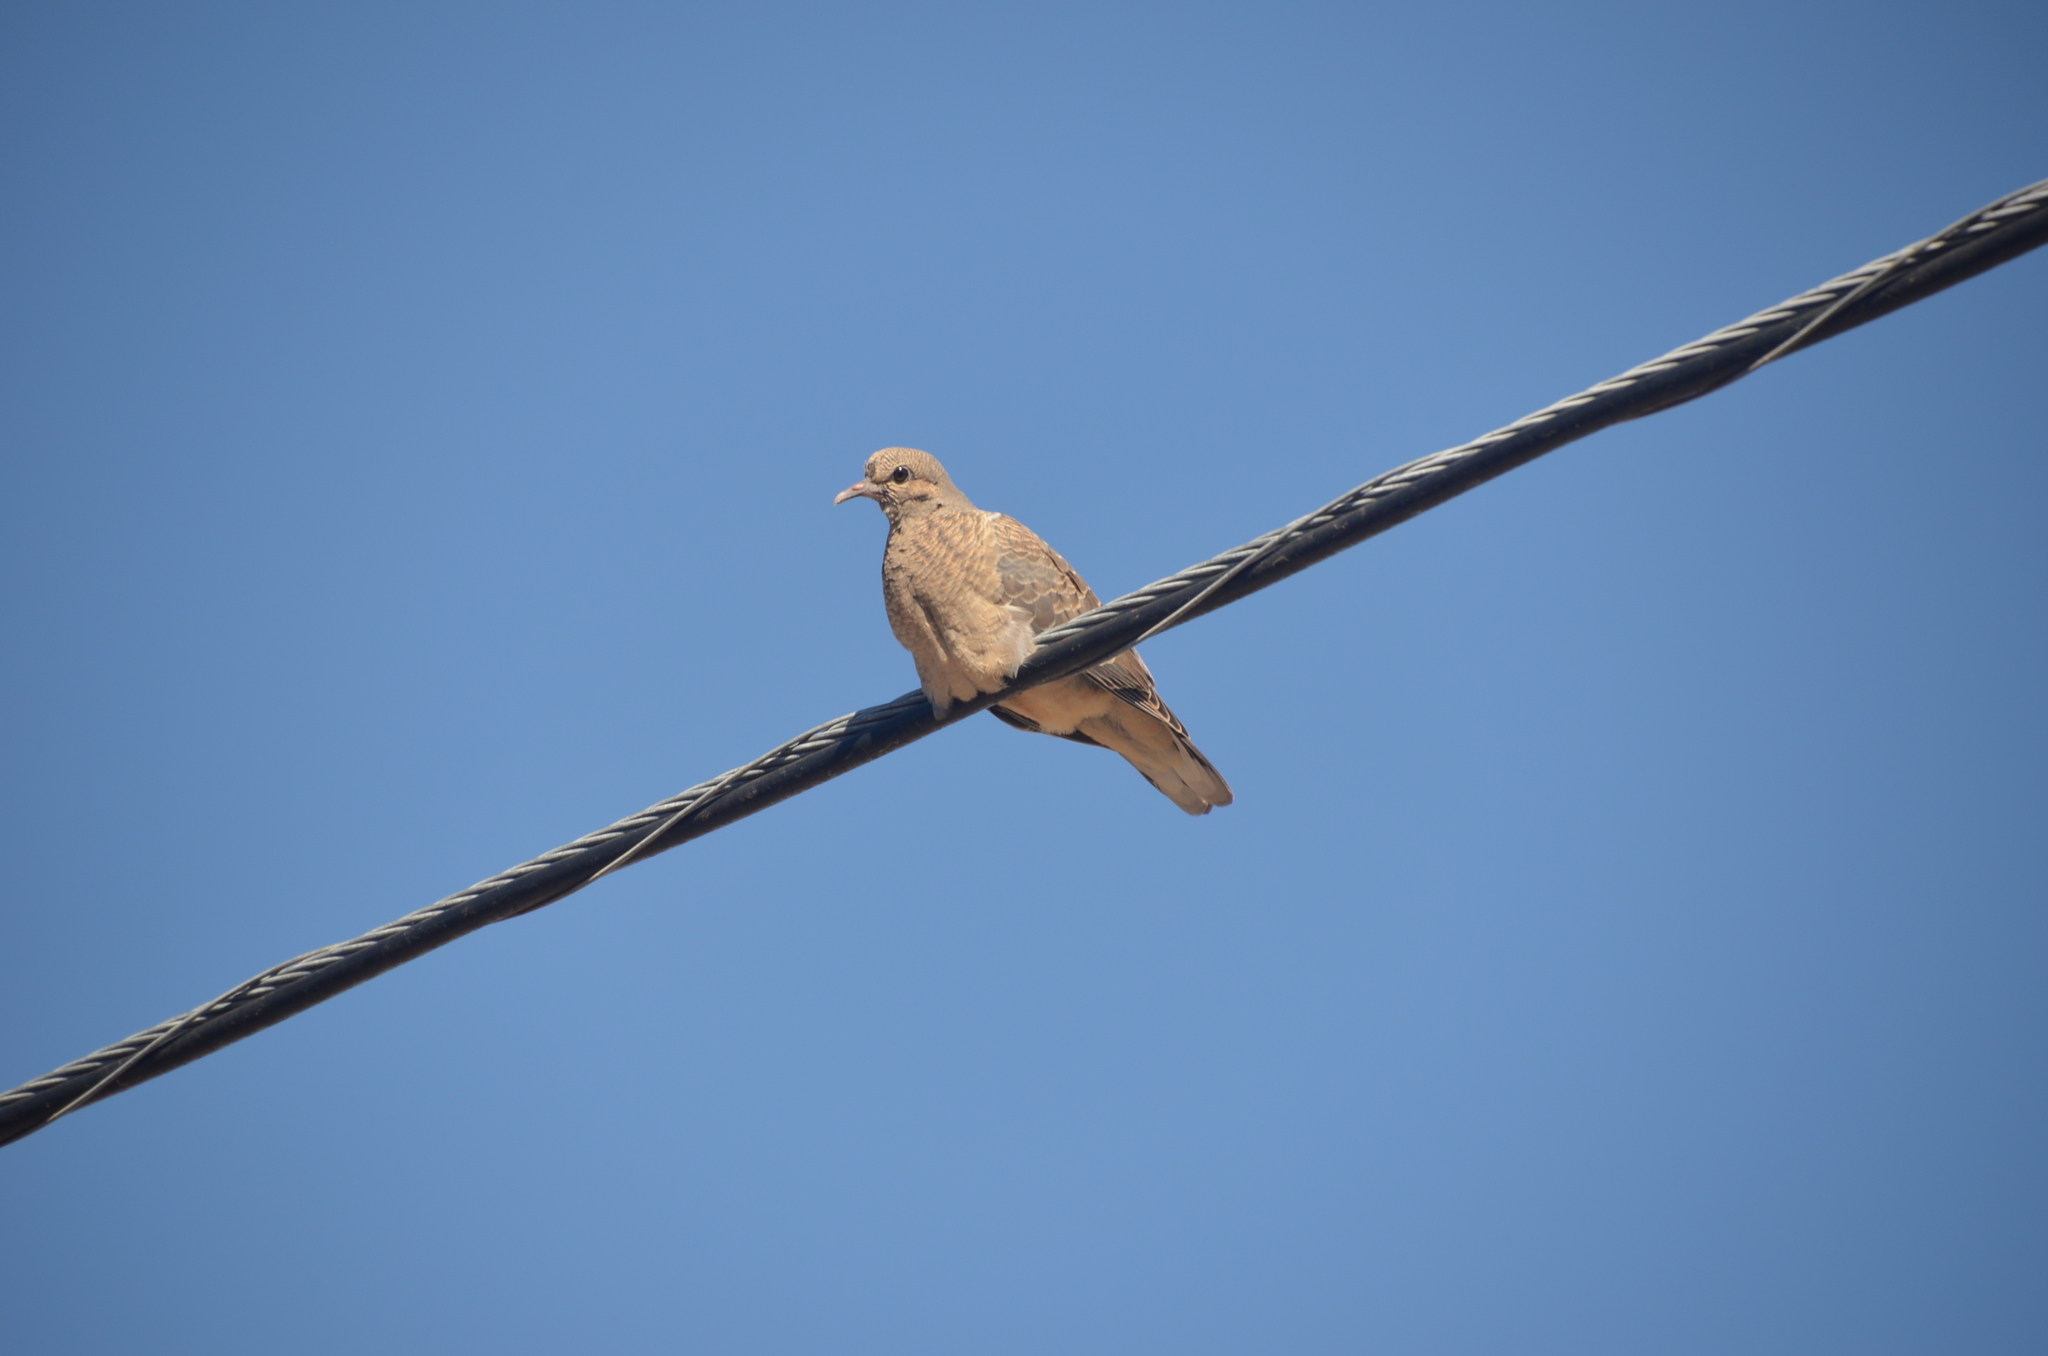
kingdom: Animalia
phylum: Chordata
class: Aves
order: Columbiformes
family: Columbidae
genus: Zenaida
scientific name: Zenaida auriculata
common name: Eared dove
